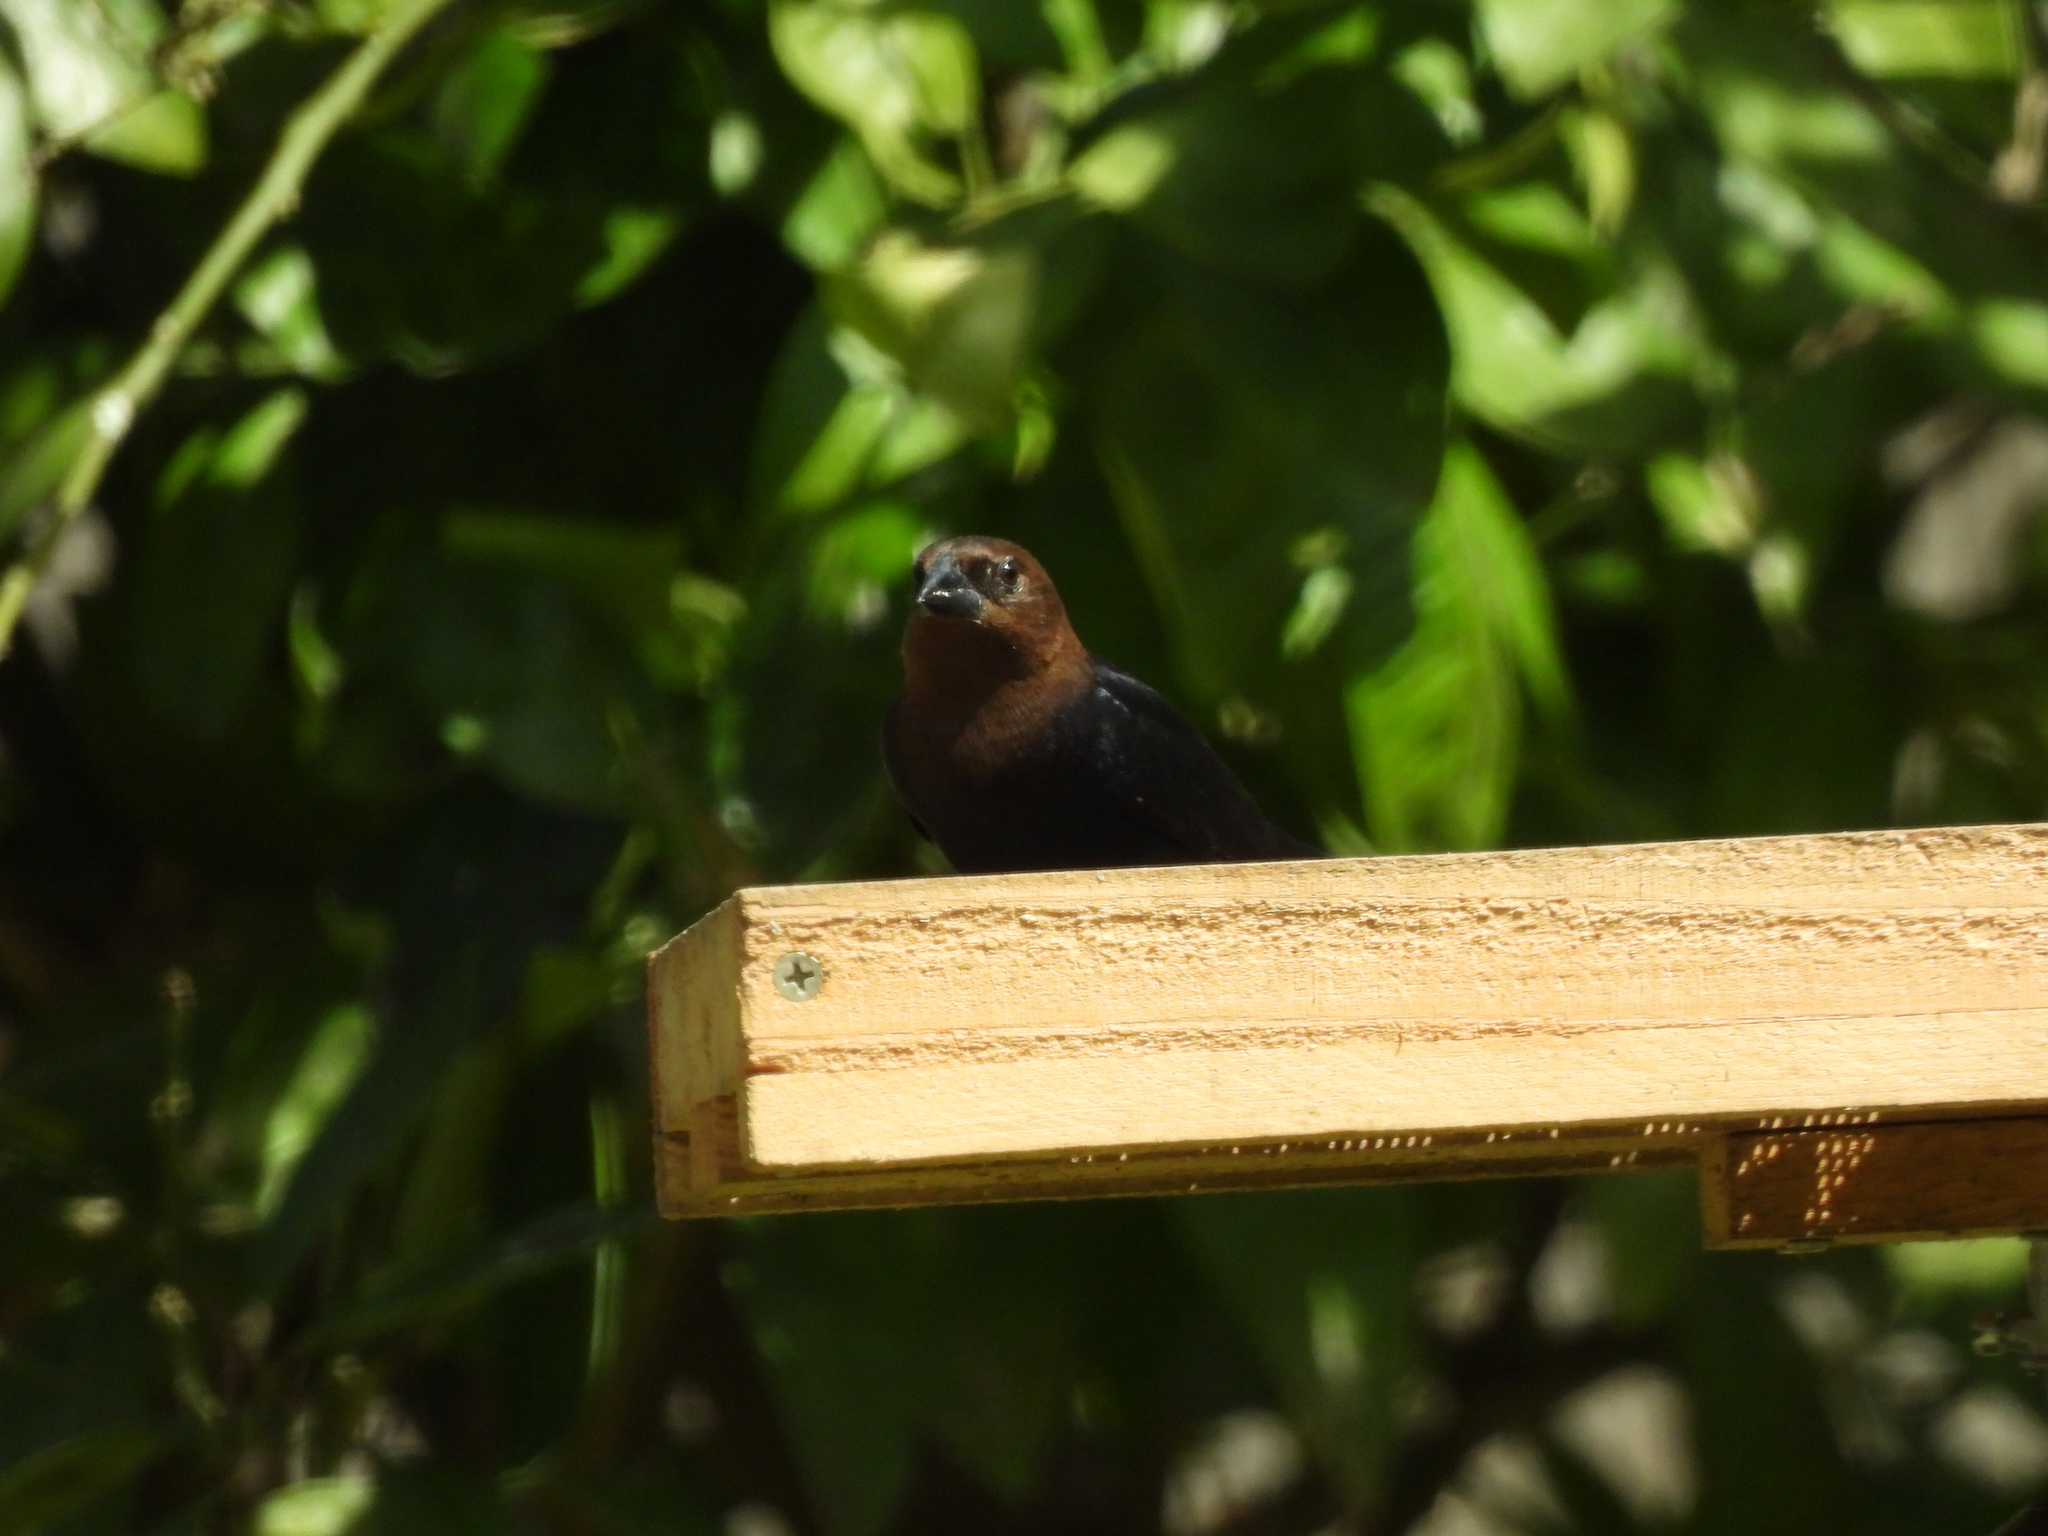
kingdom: Animalia
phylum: Chordata
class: Aves
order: Passeriformes
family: Icteridae
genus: Molothrus
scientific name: Molothrus ater
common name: Brown-headed cowbird
